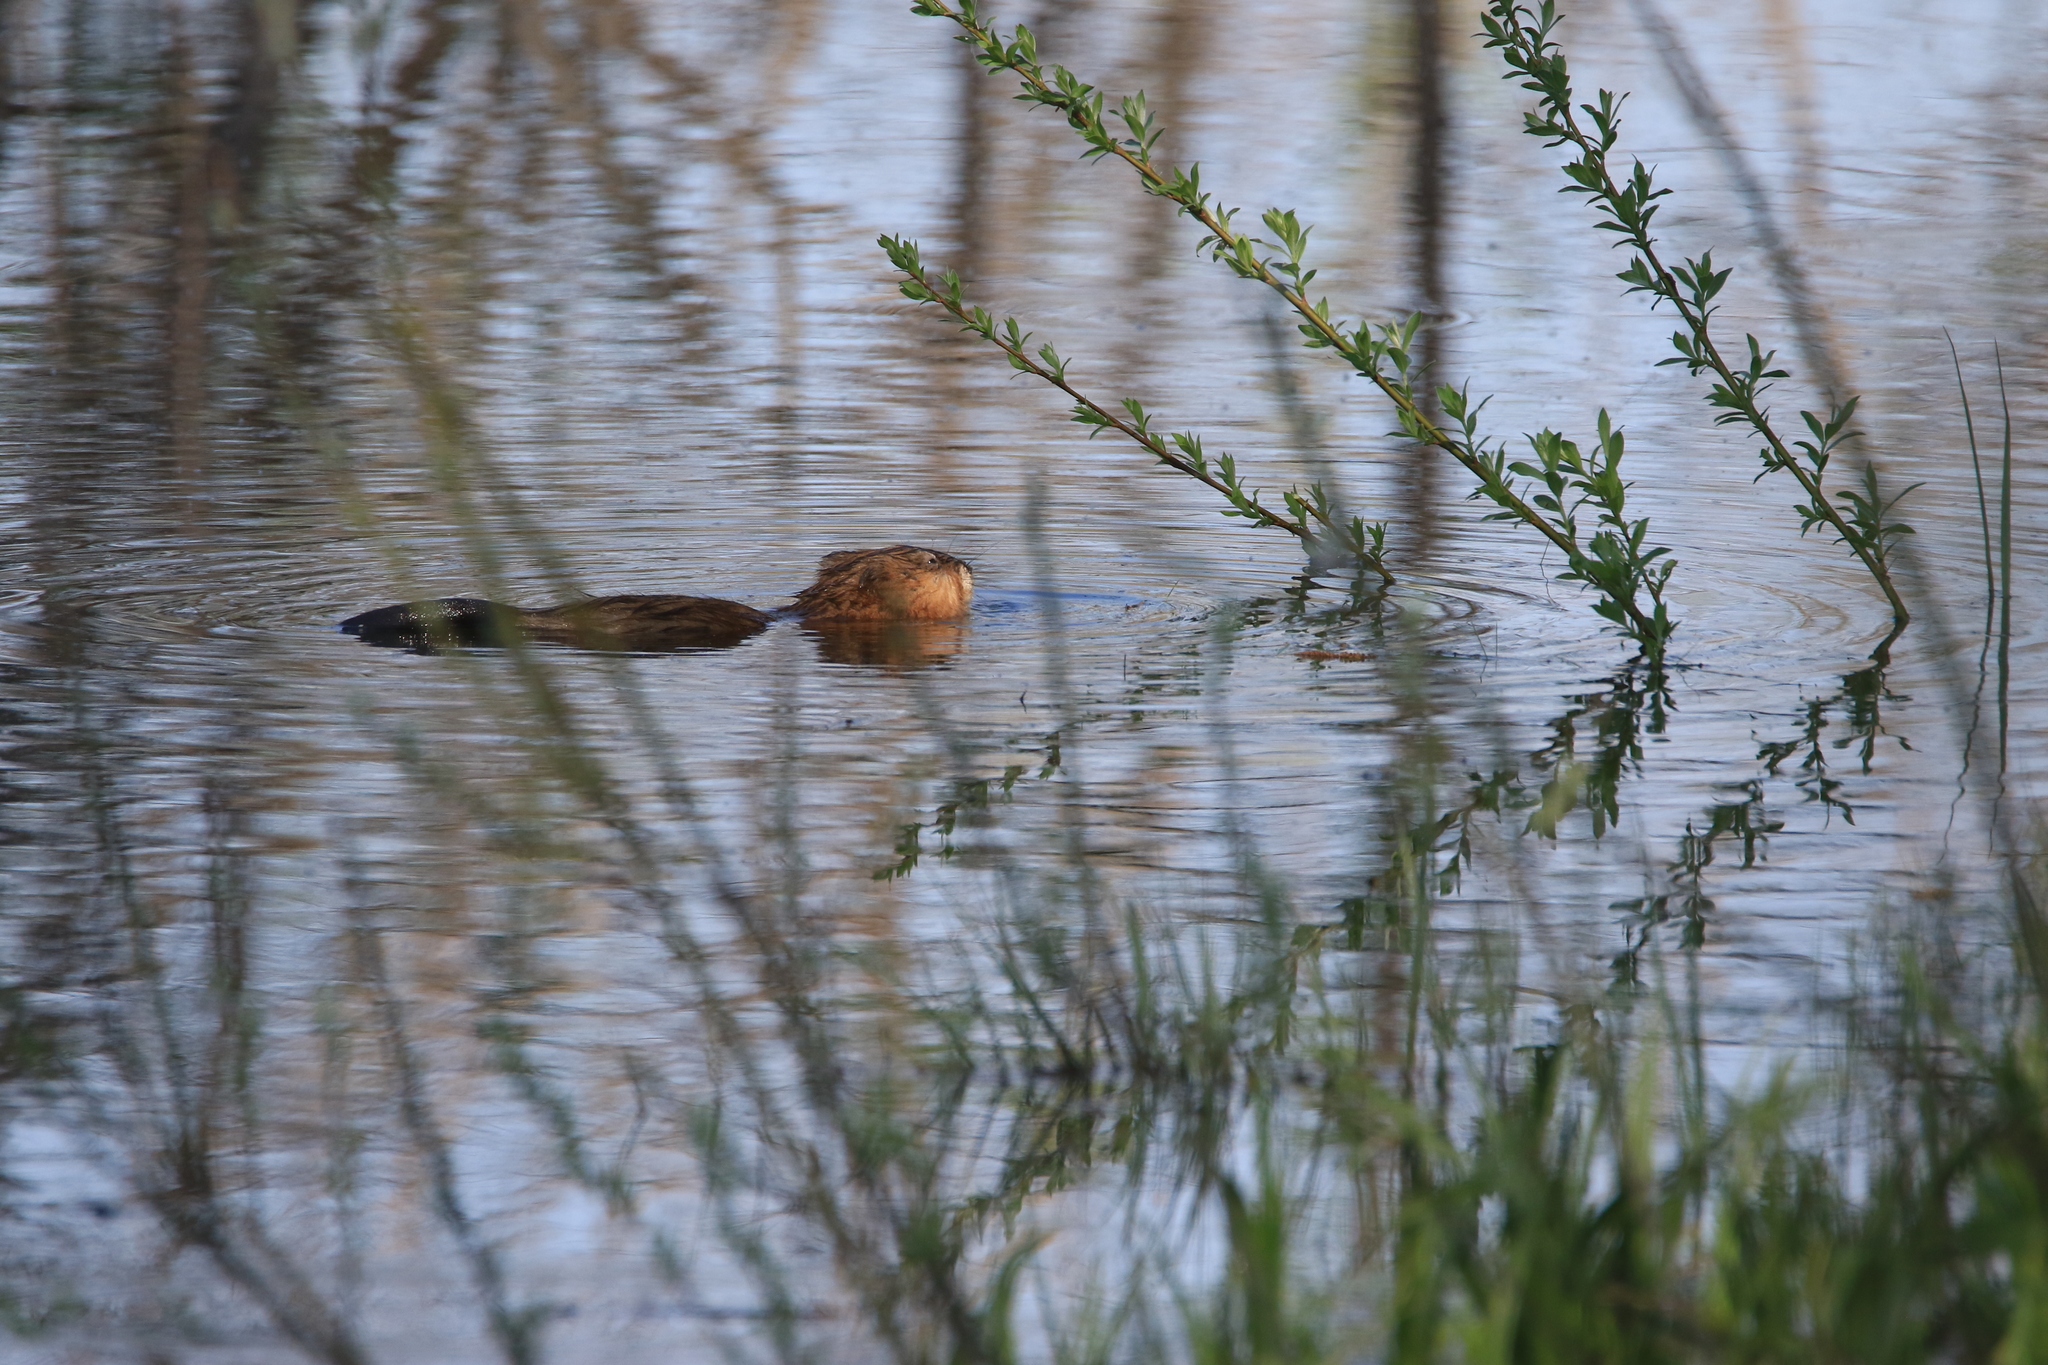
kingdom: Animalia
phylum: Chordata
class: Mammalia
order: Rodentia
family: Cricetidae
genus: Ondatra
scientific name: Ondatra zibethicus
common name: Muskrat
